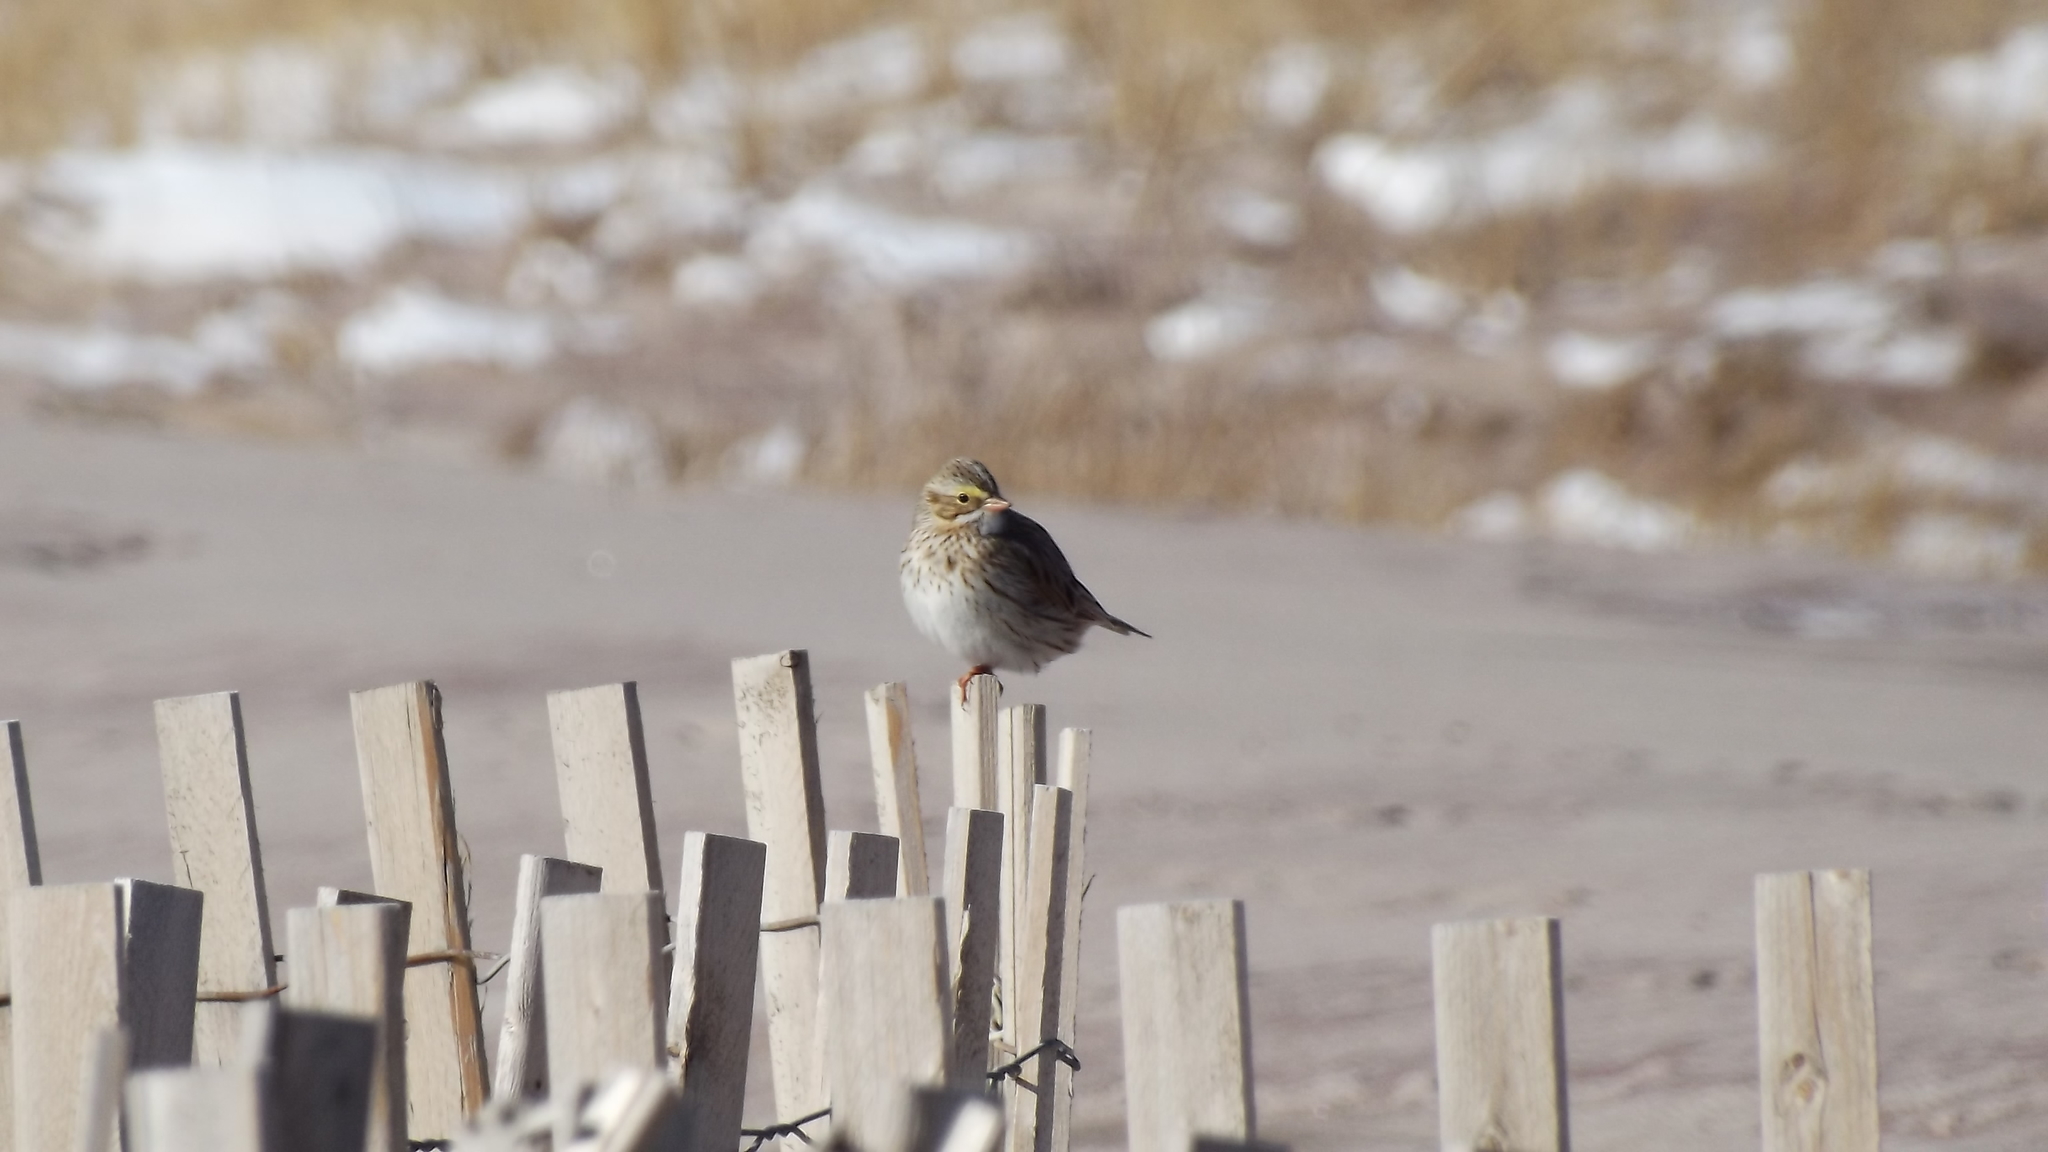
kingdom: Animalia
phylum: Chordata
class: Aves
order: Passeriformes
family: Passerellidae
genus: Passerculus
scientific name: Passerculus sandwichensis
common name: Savannah sparrow
